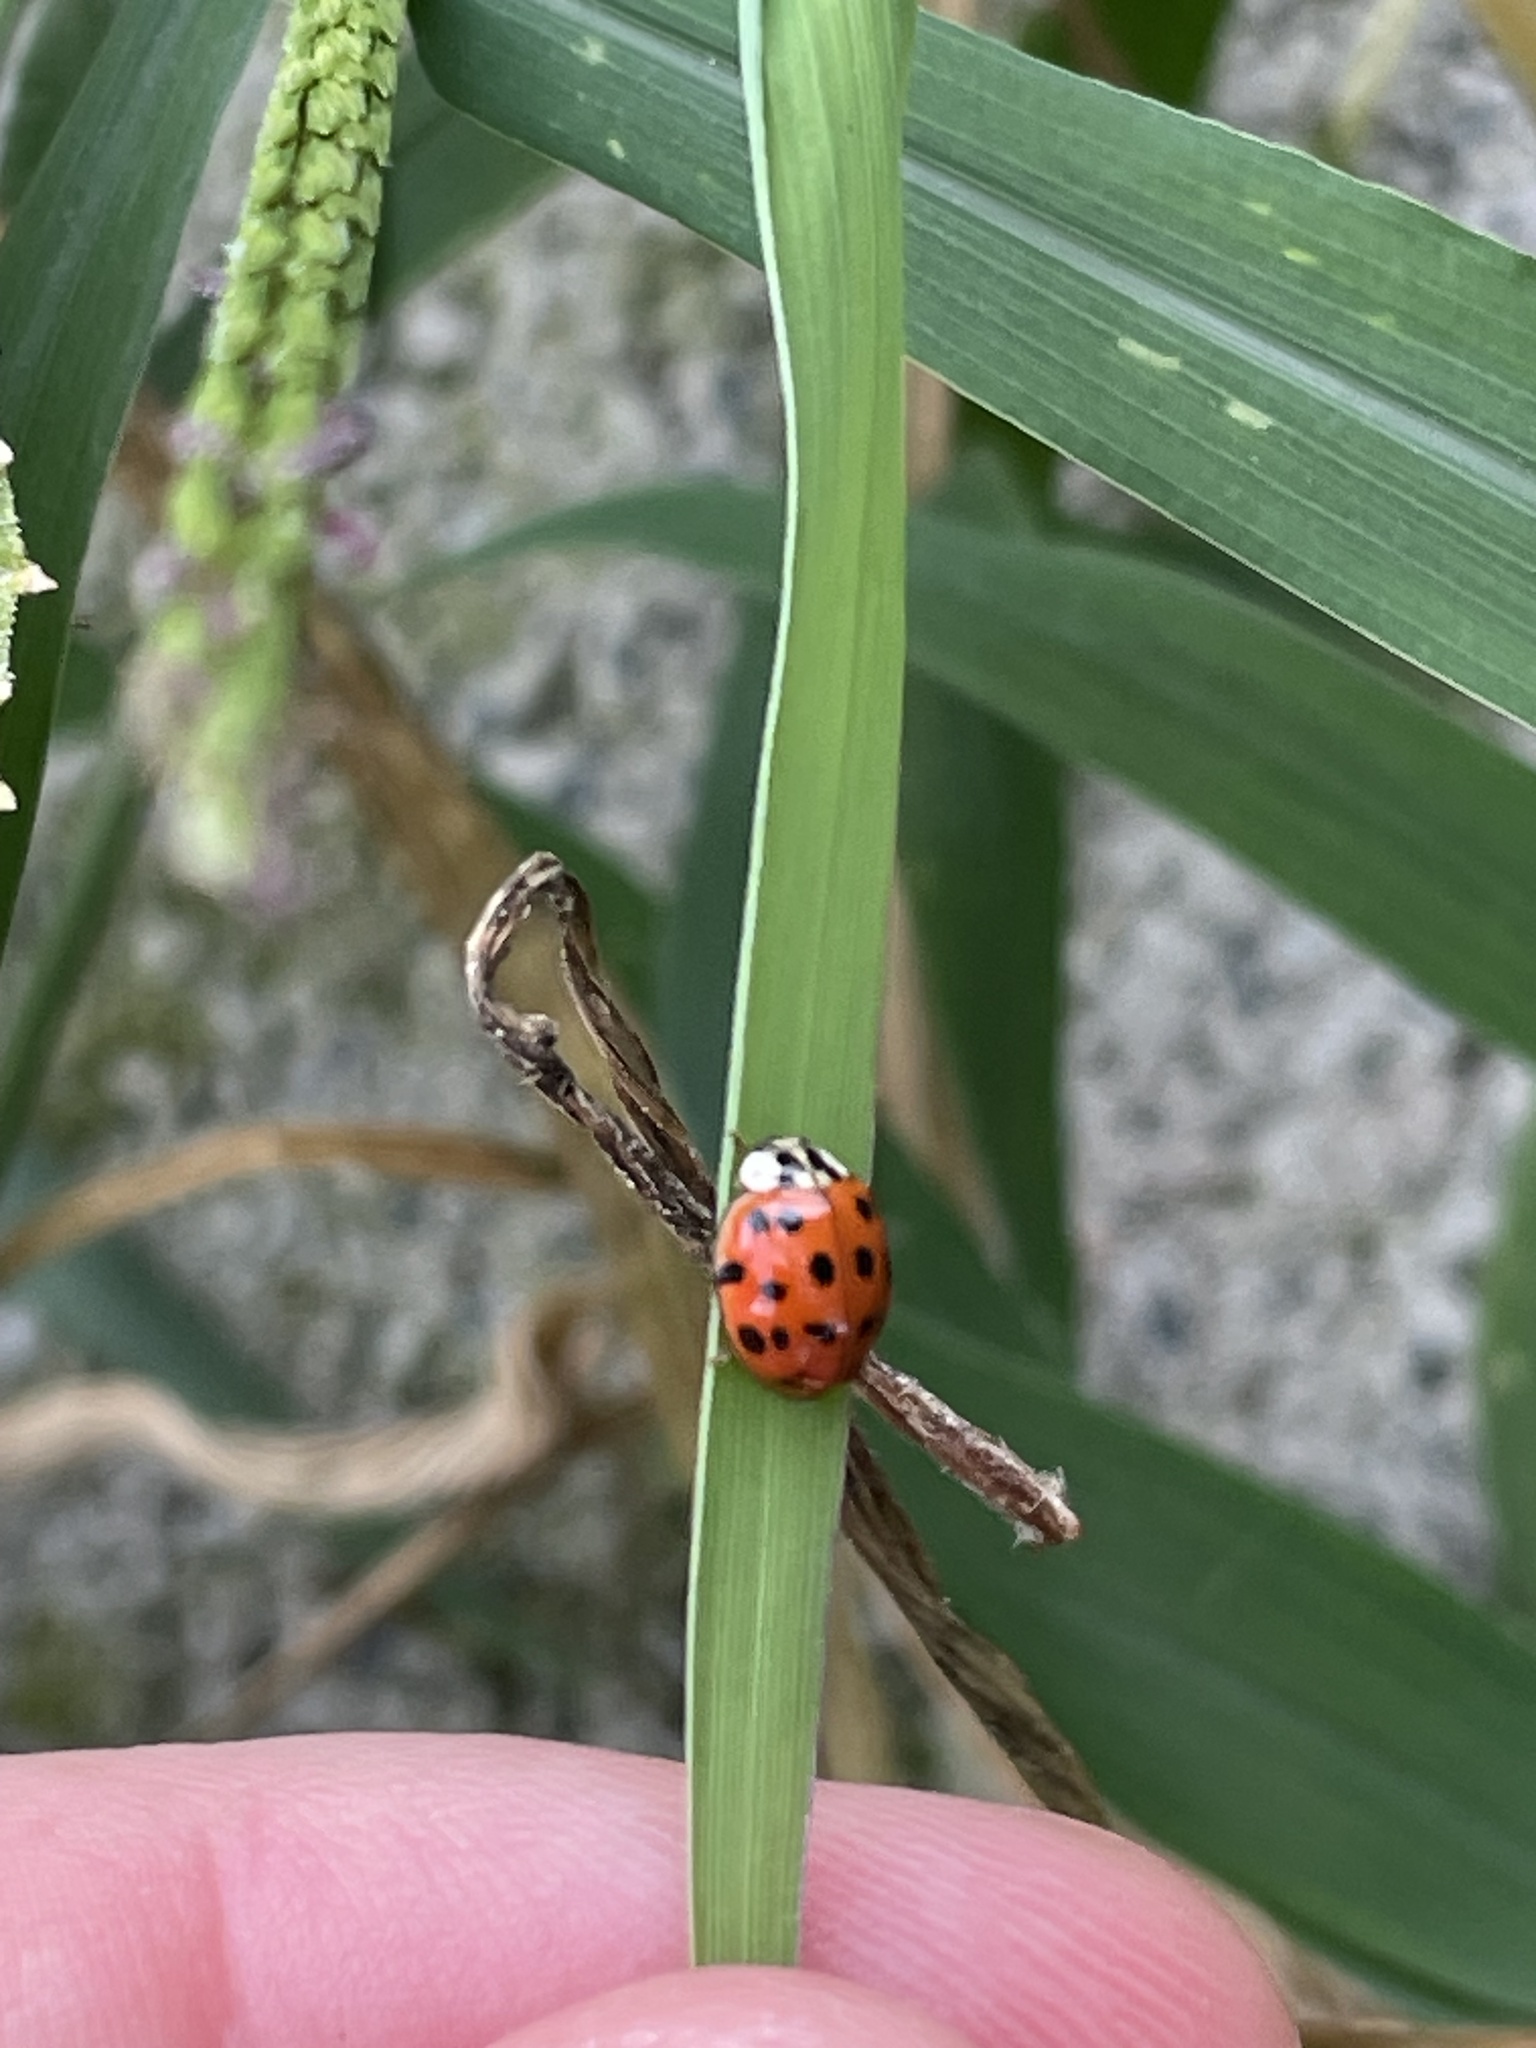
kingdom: Animalia
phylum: Arthropoda
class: Insecta
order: Coleoptera
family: Coccinellidae
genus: Harmonia
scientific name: Harmonia axyridis
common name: Harlequin ladybird
